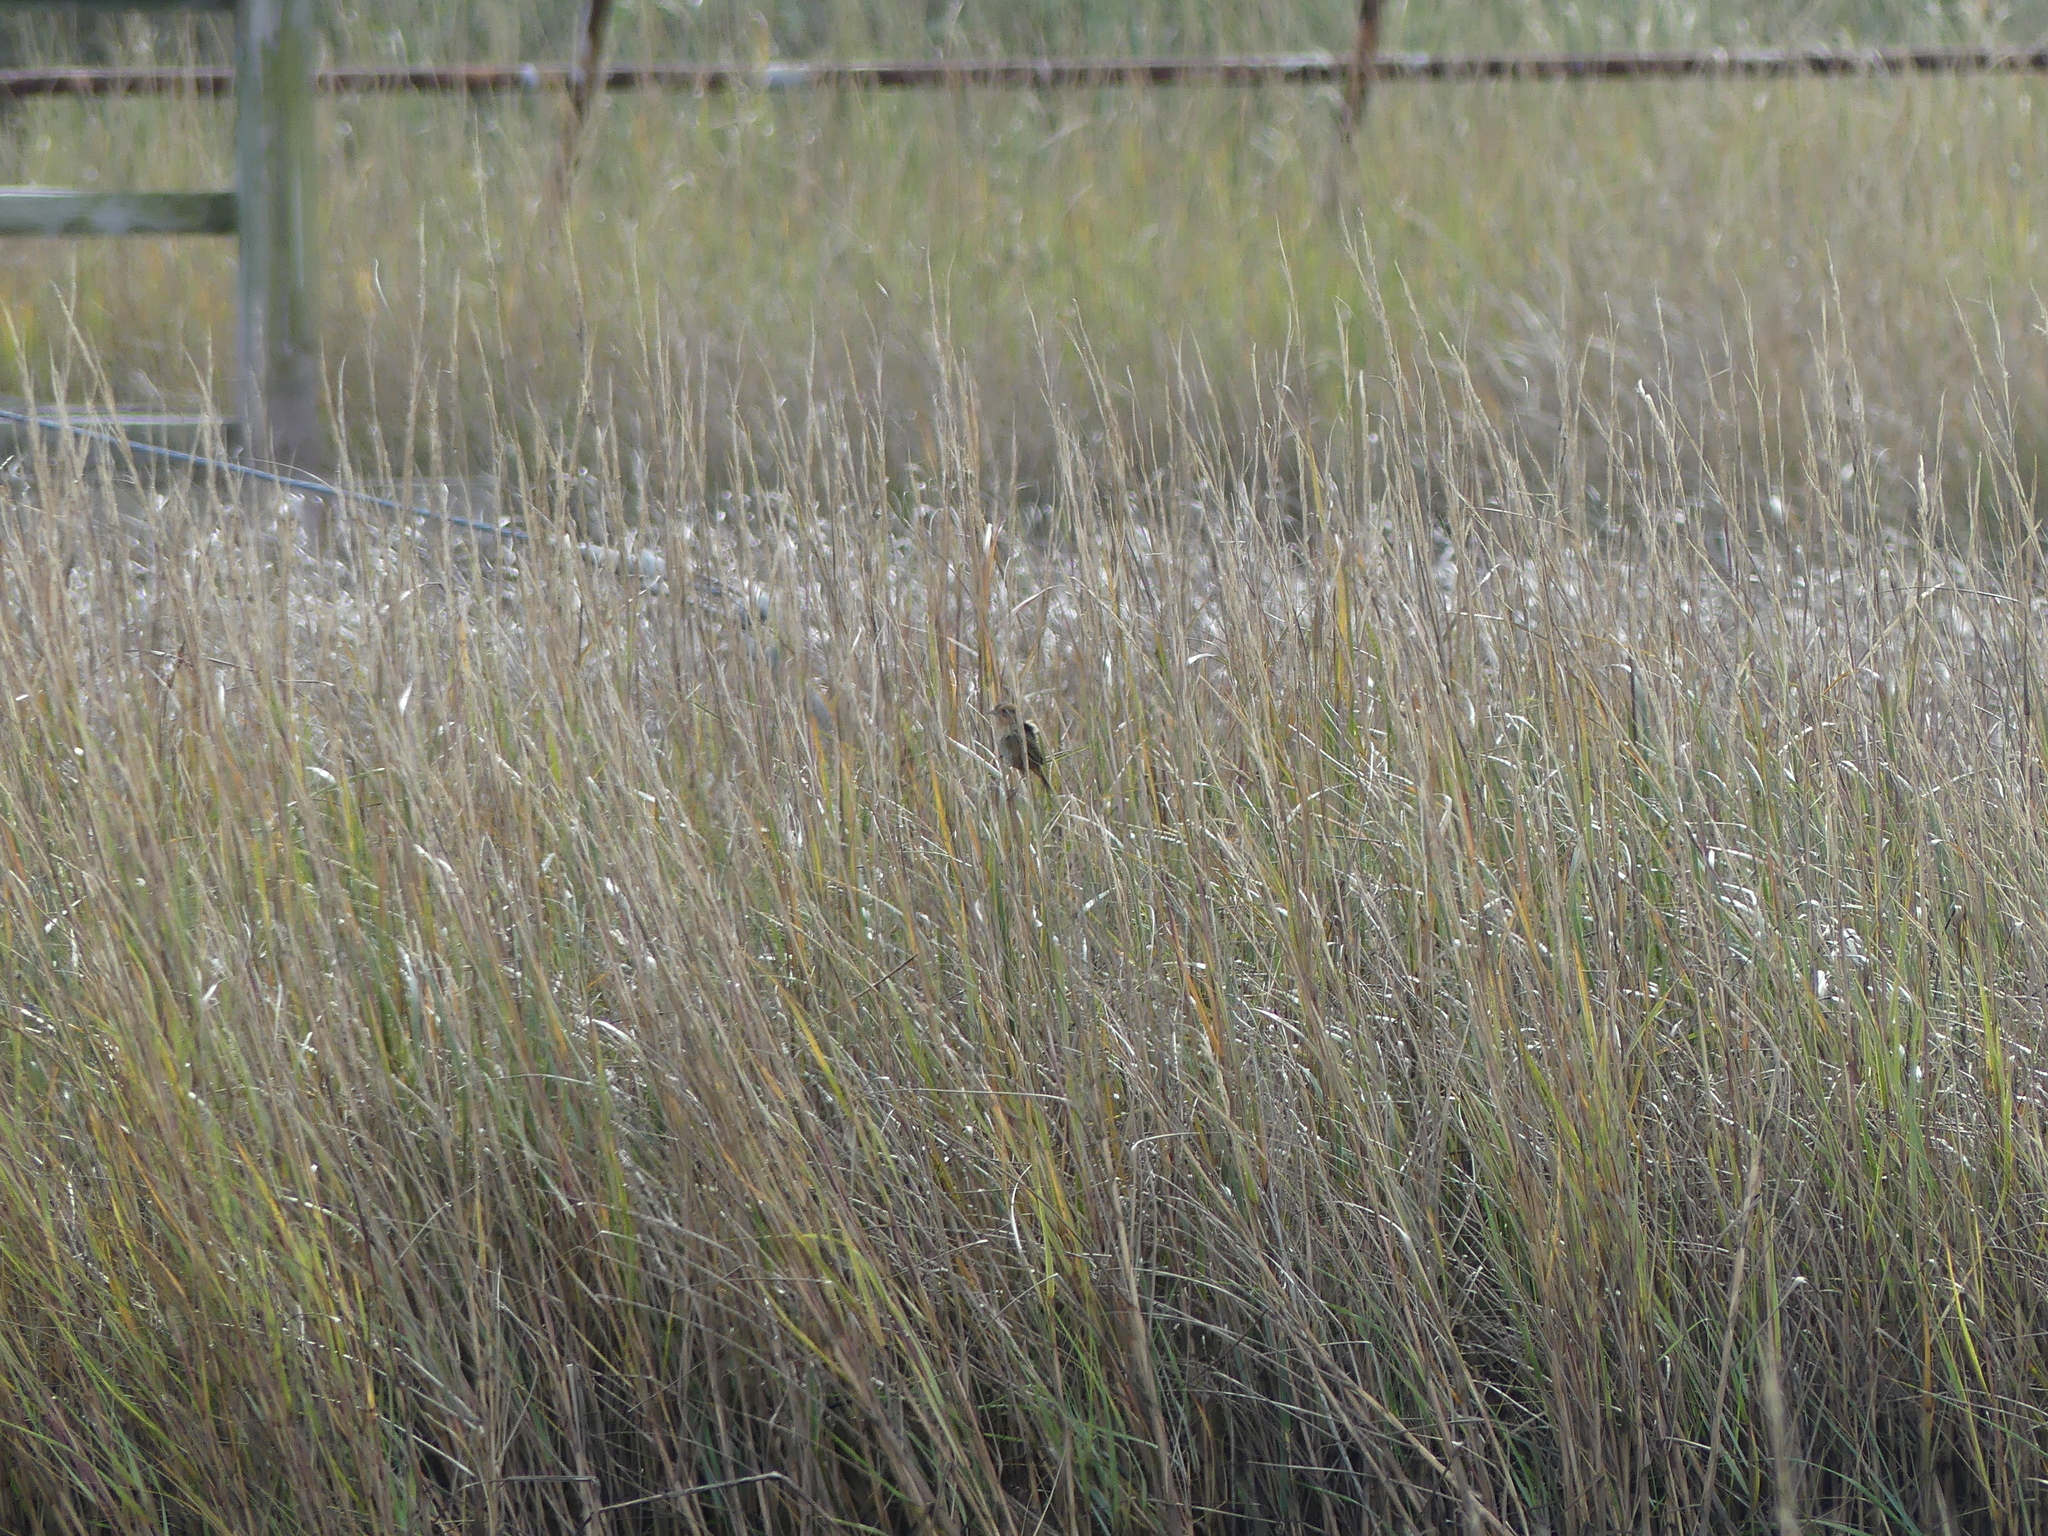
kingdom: Animalia
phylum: Chordata
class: Aves
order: Passeriformes
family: Passerellidae
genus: Ammospiza
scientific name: Ammospiza nelsoni
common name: Nelson's sparrow
